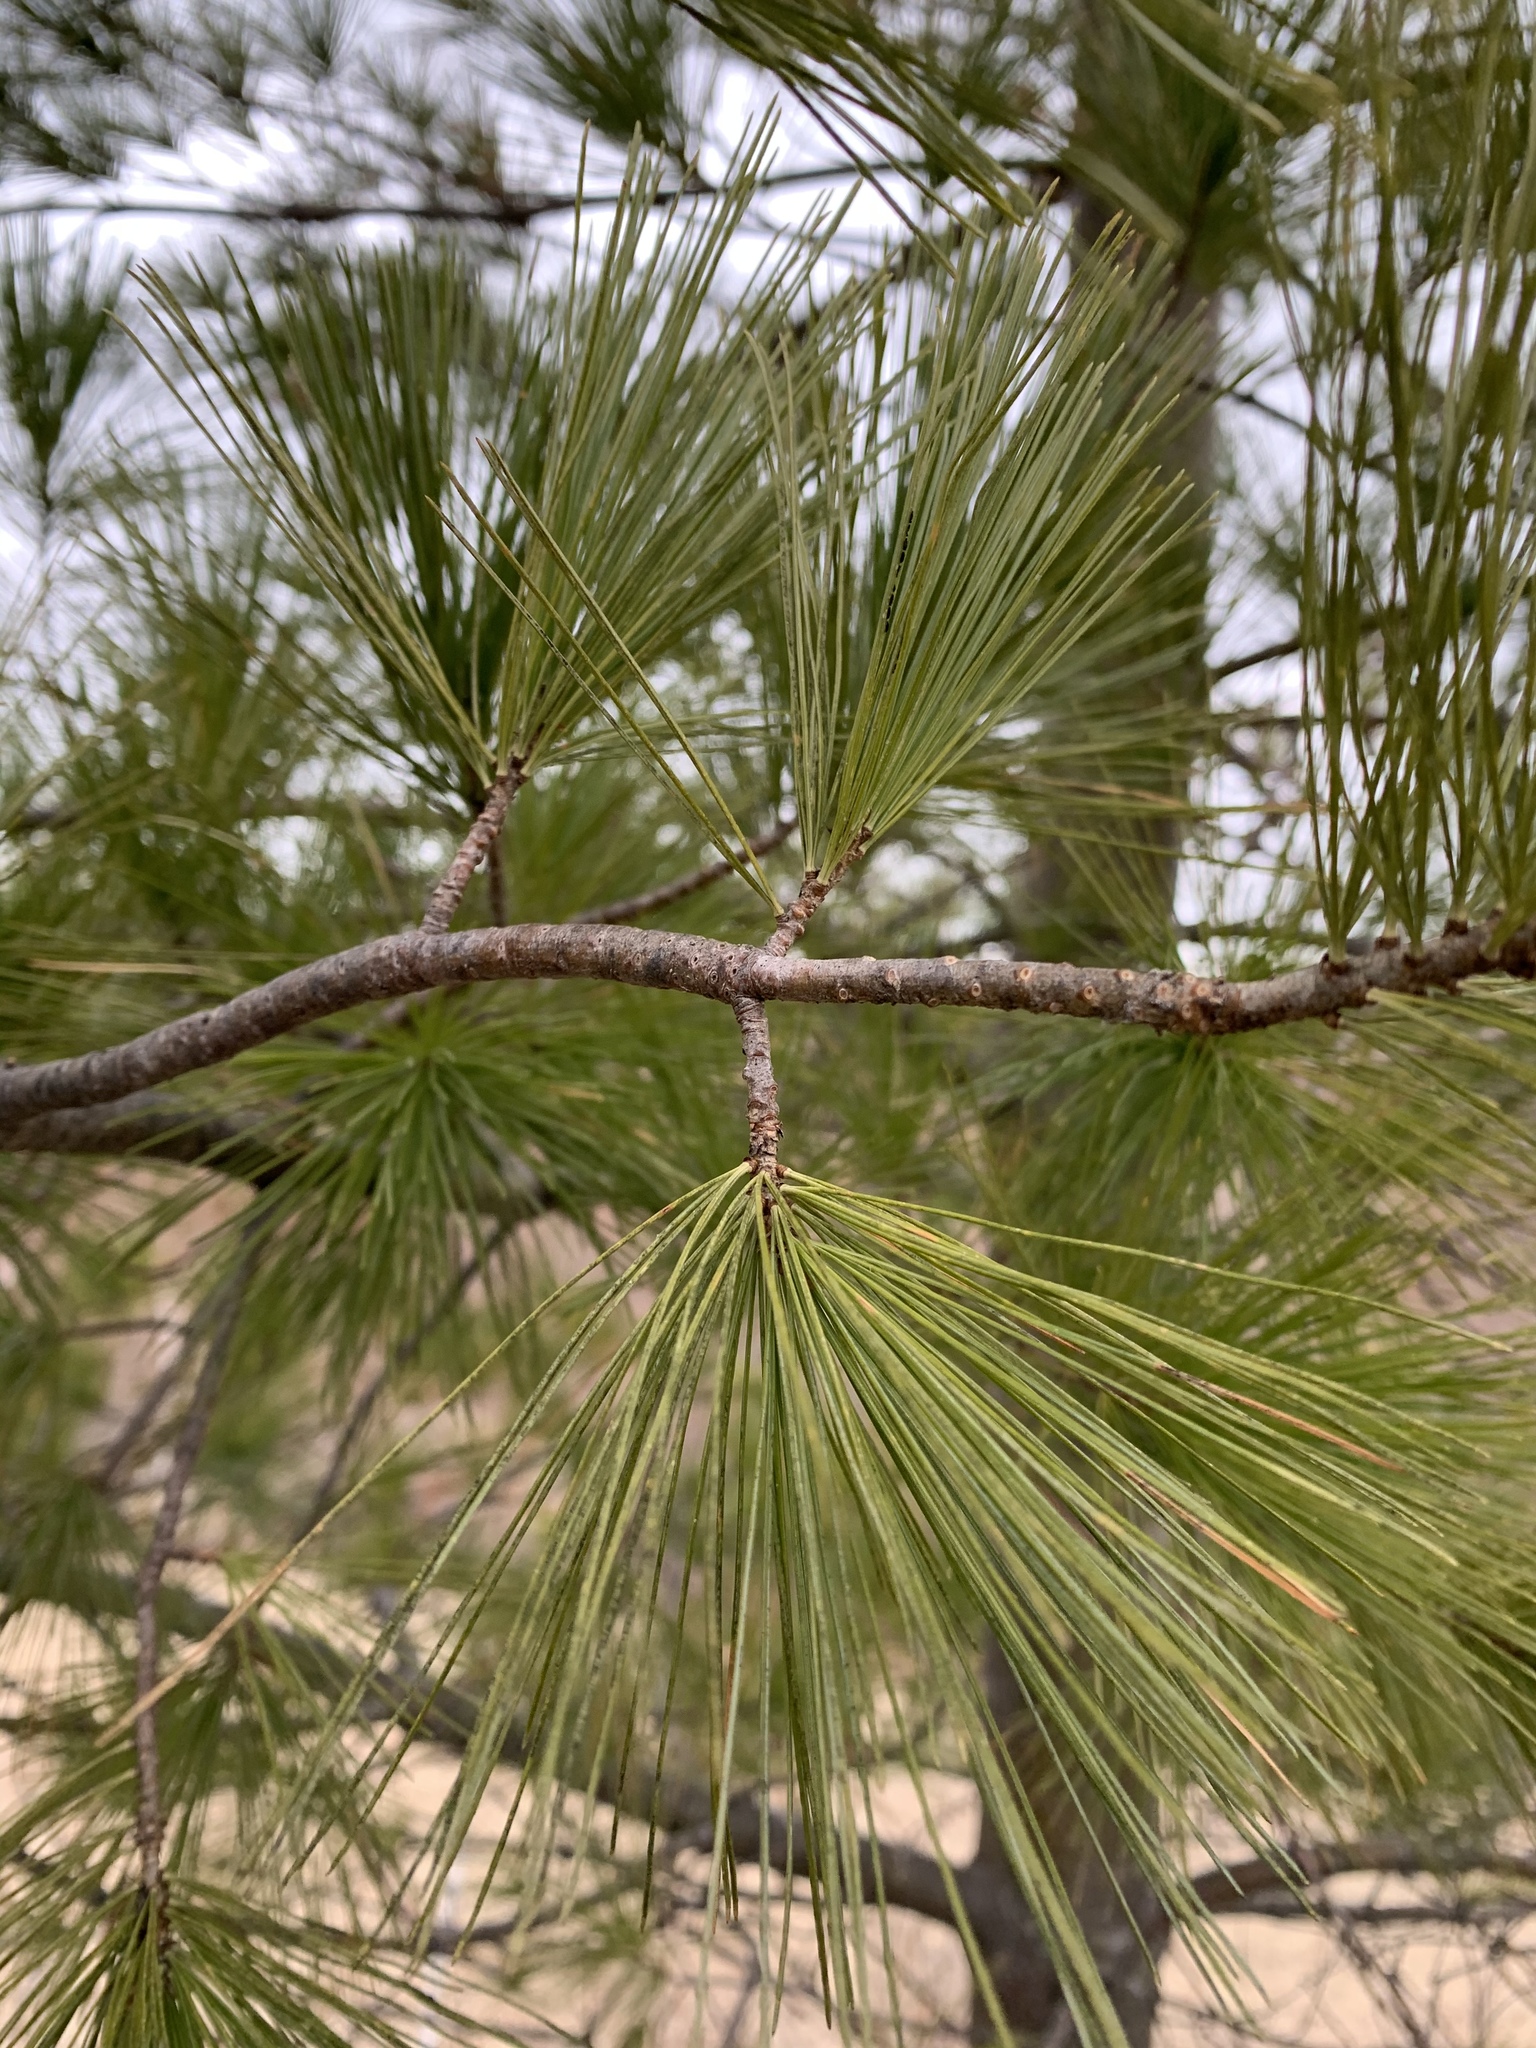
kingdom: Plantae
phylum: Tracheophyta
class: Pinopsida
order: Pinales
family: Pinaceae
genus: Pinus
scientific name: Pinus strobus
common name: Weymouth pine
